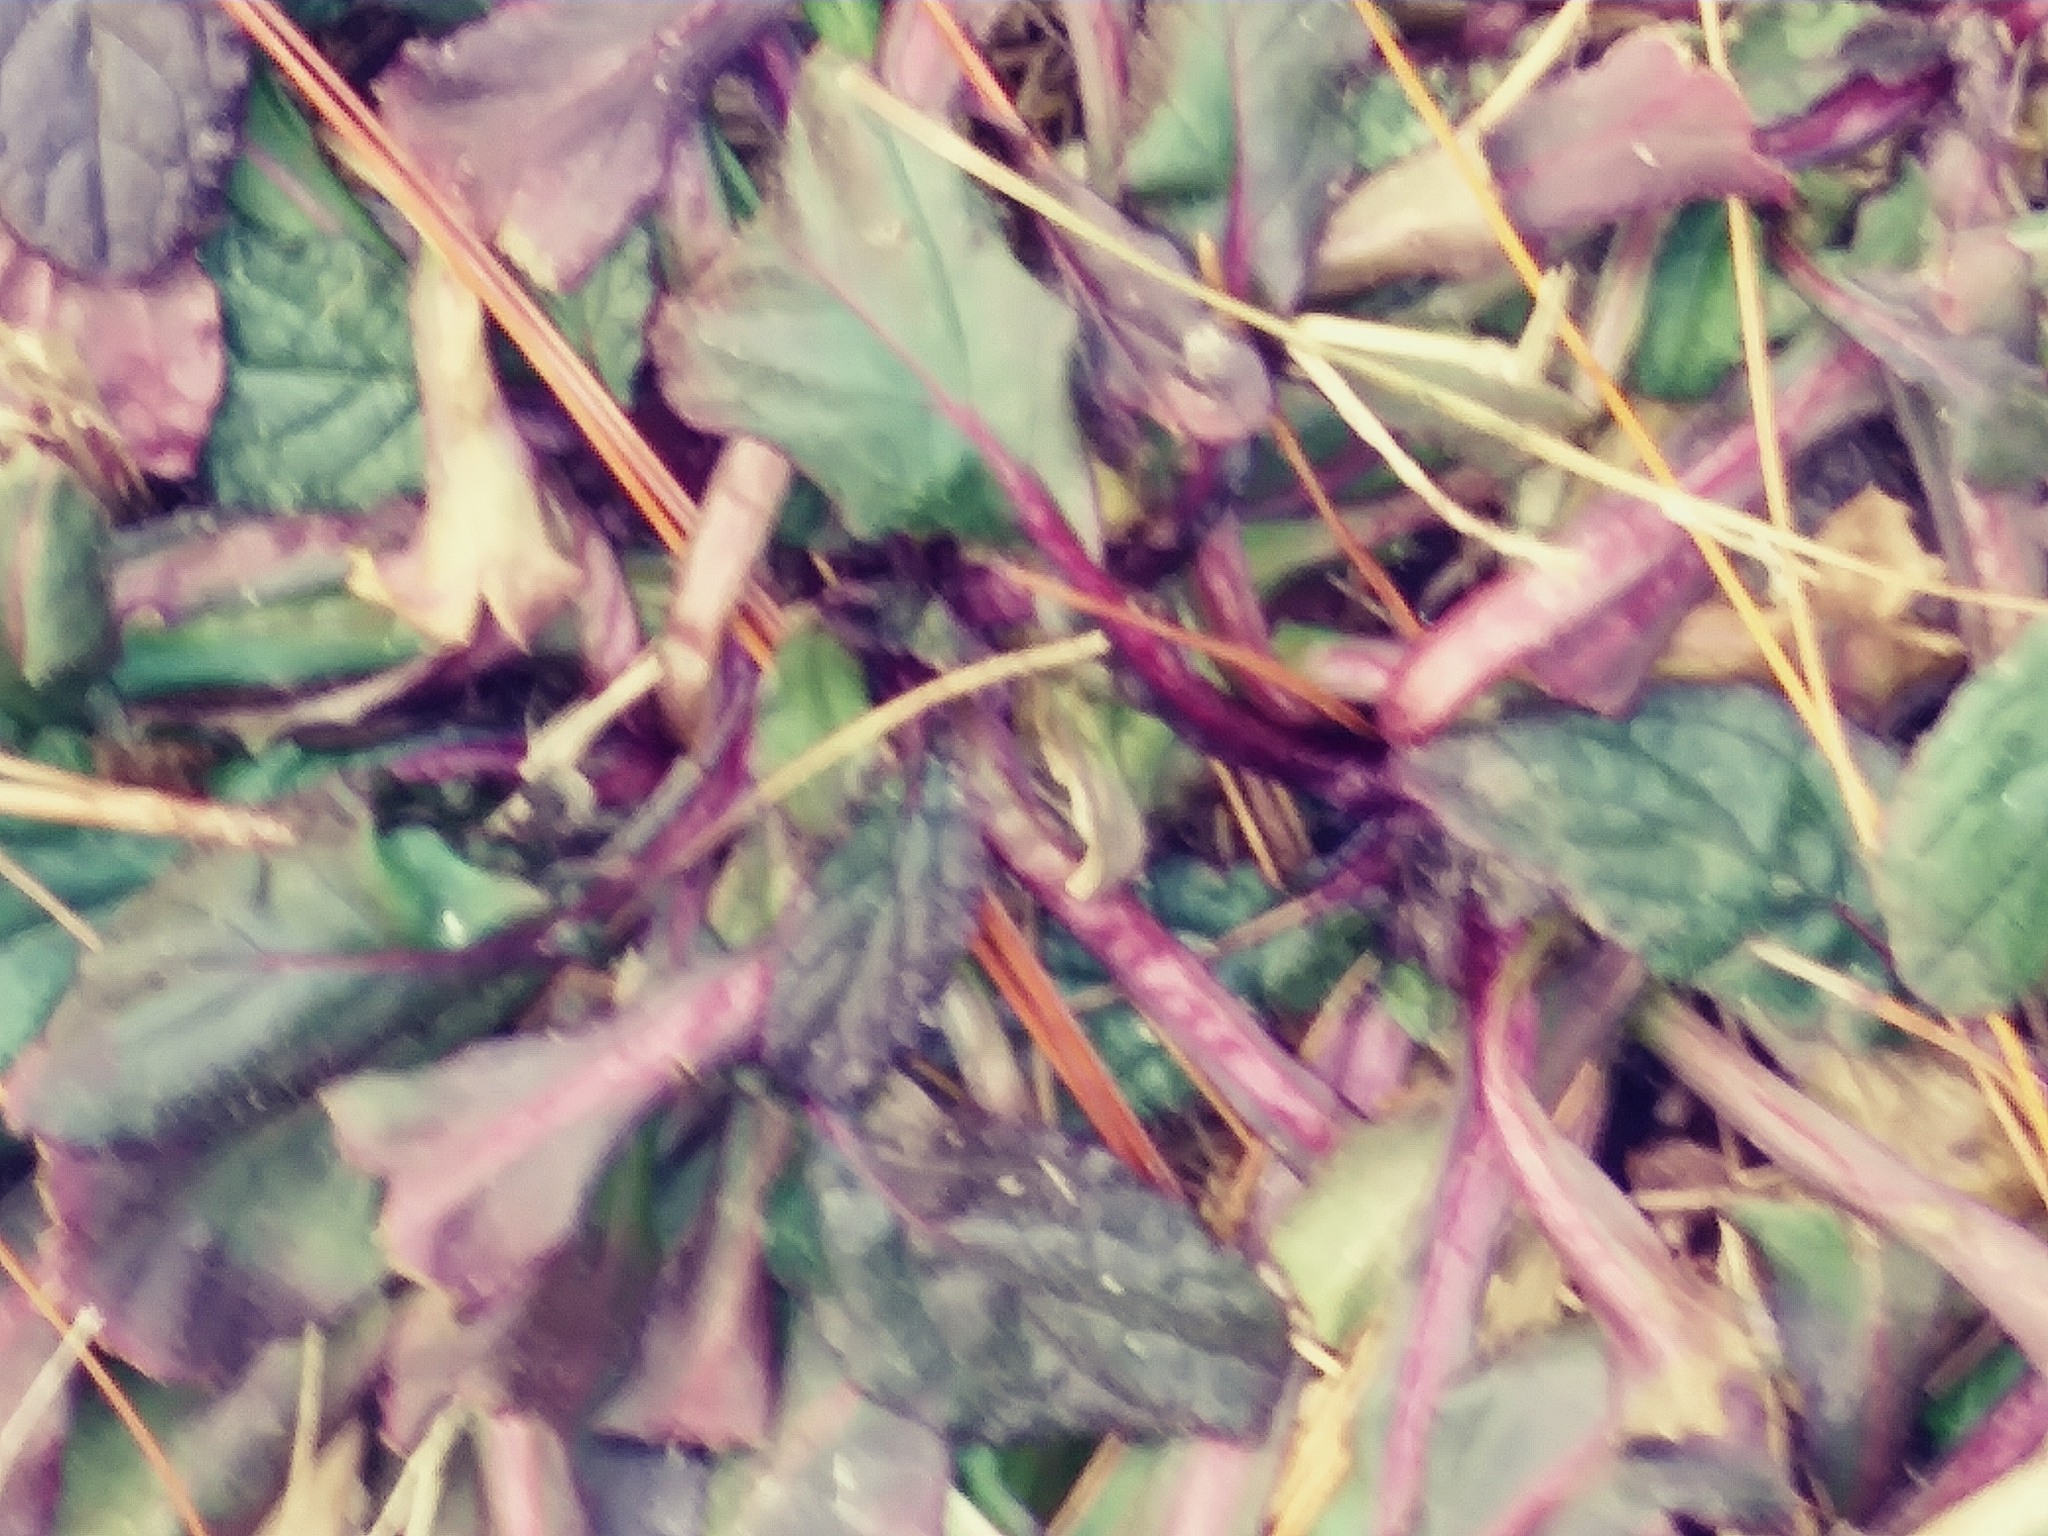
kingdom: Plantae
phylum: Tracheophyta
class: Magnoliopsida
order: Lamiales
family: Lamiaceae
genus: Ajuga
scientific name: Ajuga reptans
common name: Bugle
